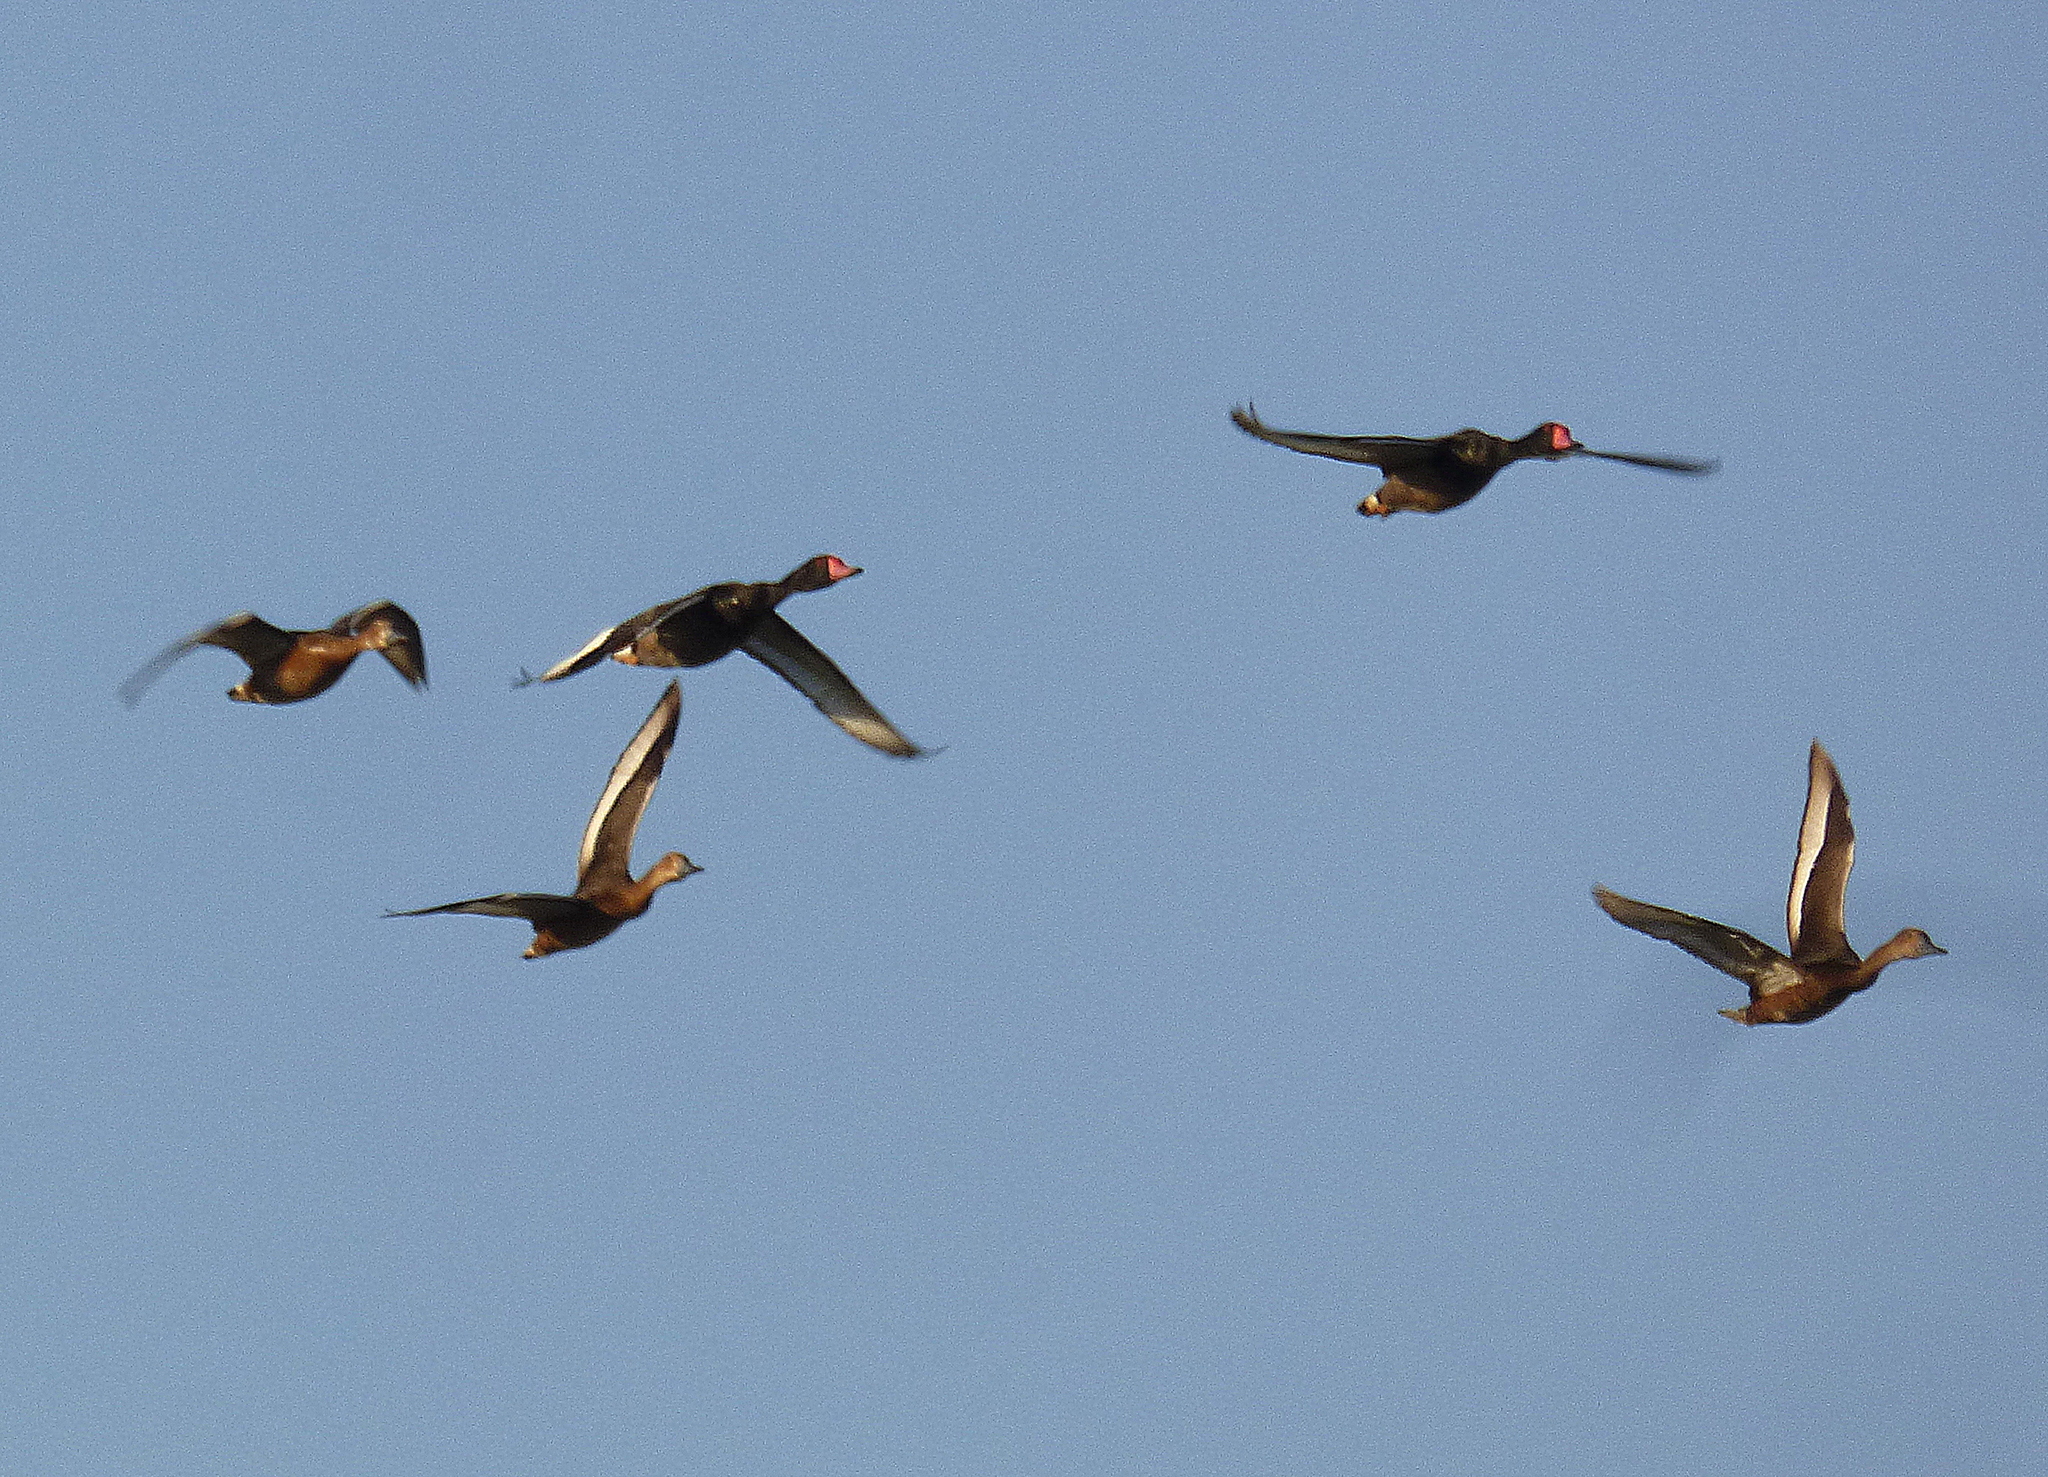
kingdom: Animalia
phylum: Chordata
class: Aves
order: Anseriformes
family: Anatidae
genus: Netta
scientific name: Netta peposaca
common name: Rosy-billed pochard
